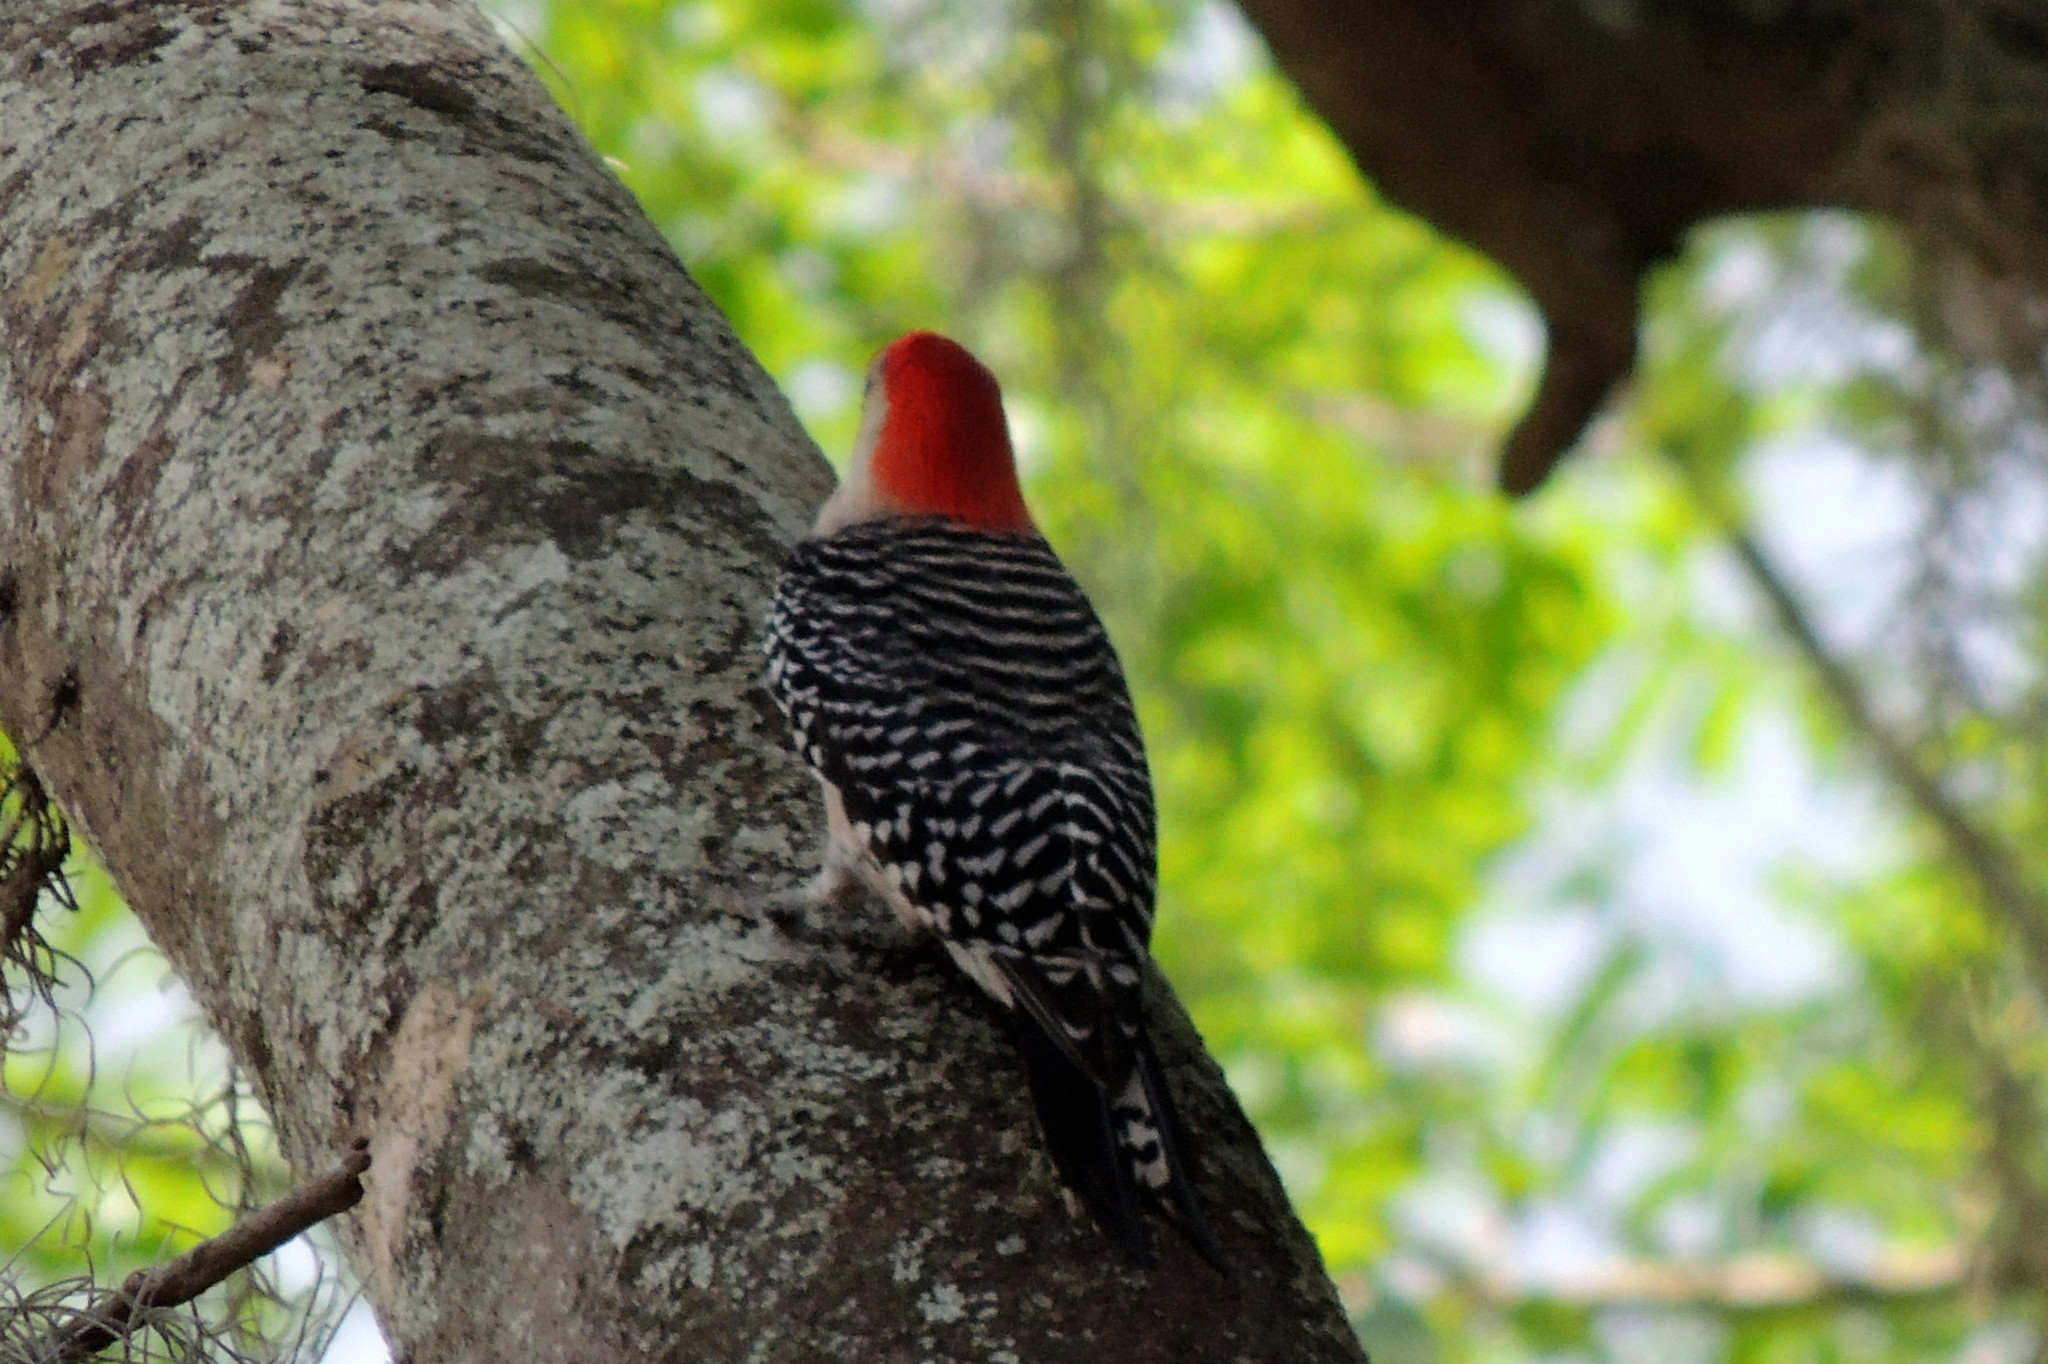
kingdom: Animalia
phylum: Chordata
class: Aves
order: Piciformes
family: Picidae
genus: Melanerpes
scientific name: Melanerpes carolinus
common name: Red-bellied woodpecker
